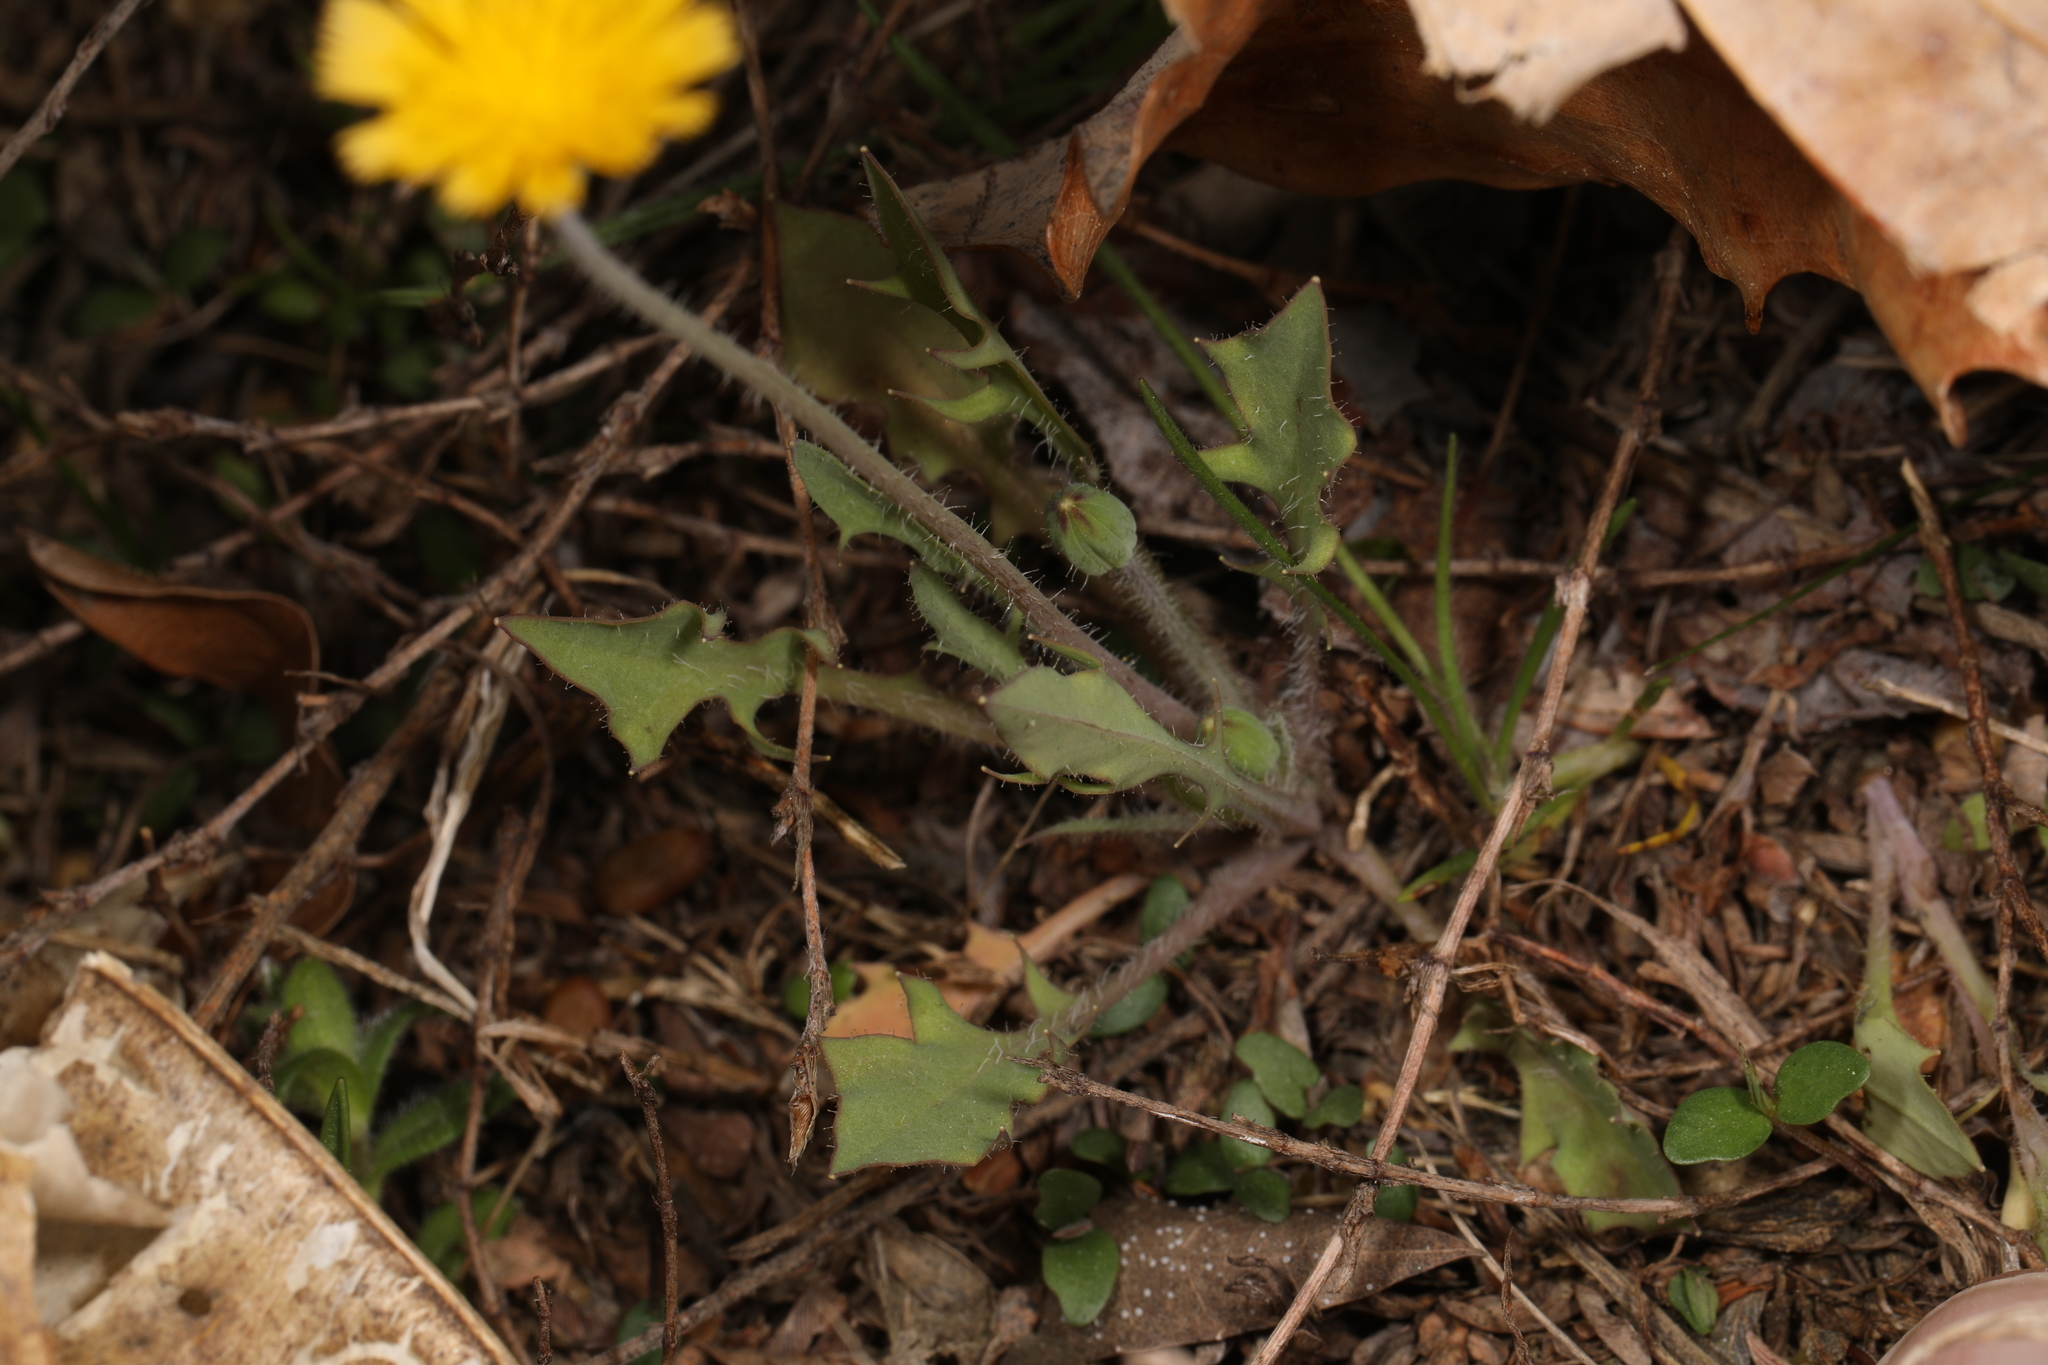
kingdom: Plantae
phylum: Tracheophyta
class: Magnoliopsida
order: Asterales
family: Asteraceae
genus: Krigia
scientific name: Krigia virginica
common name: Virginia dwarf-dandelion
